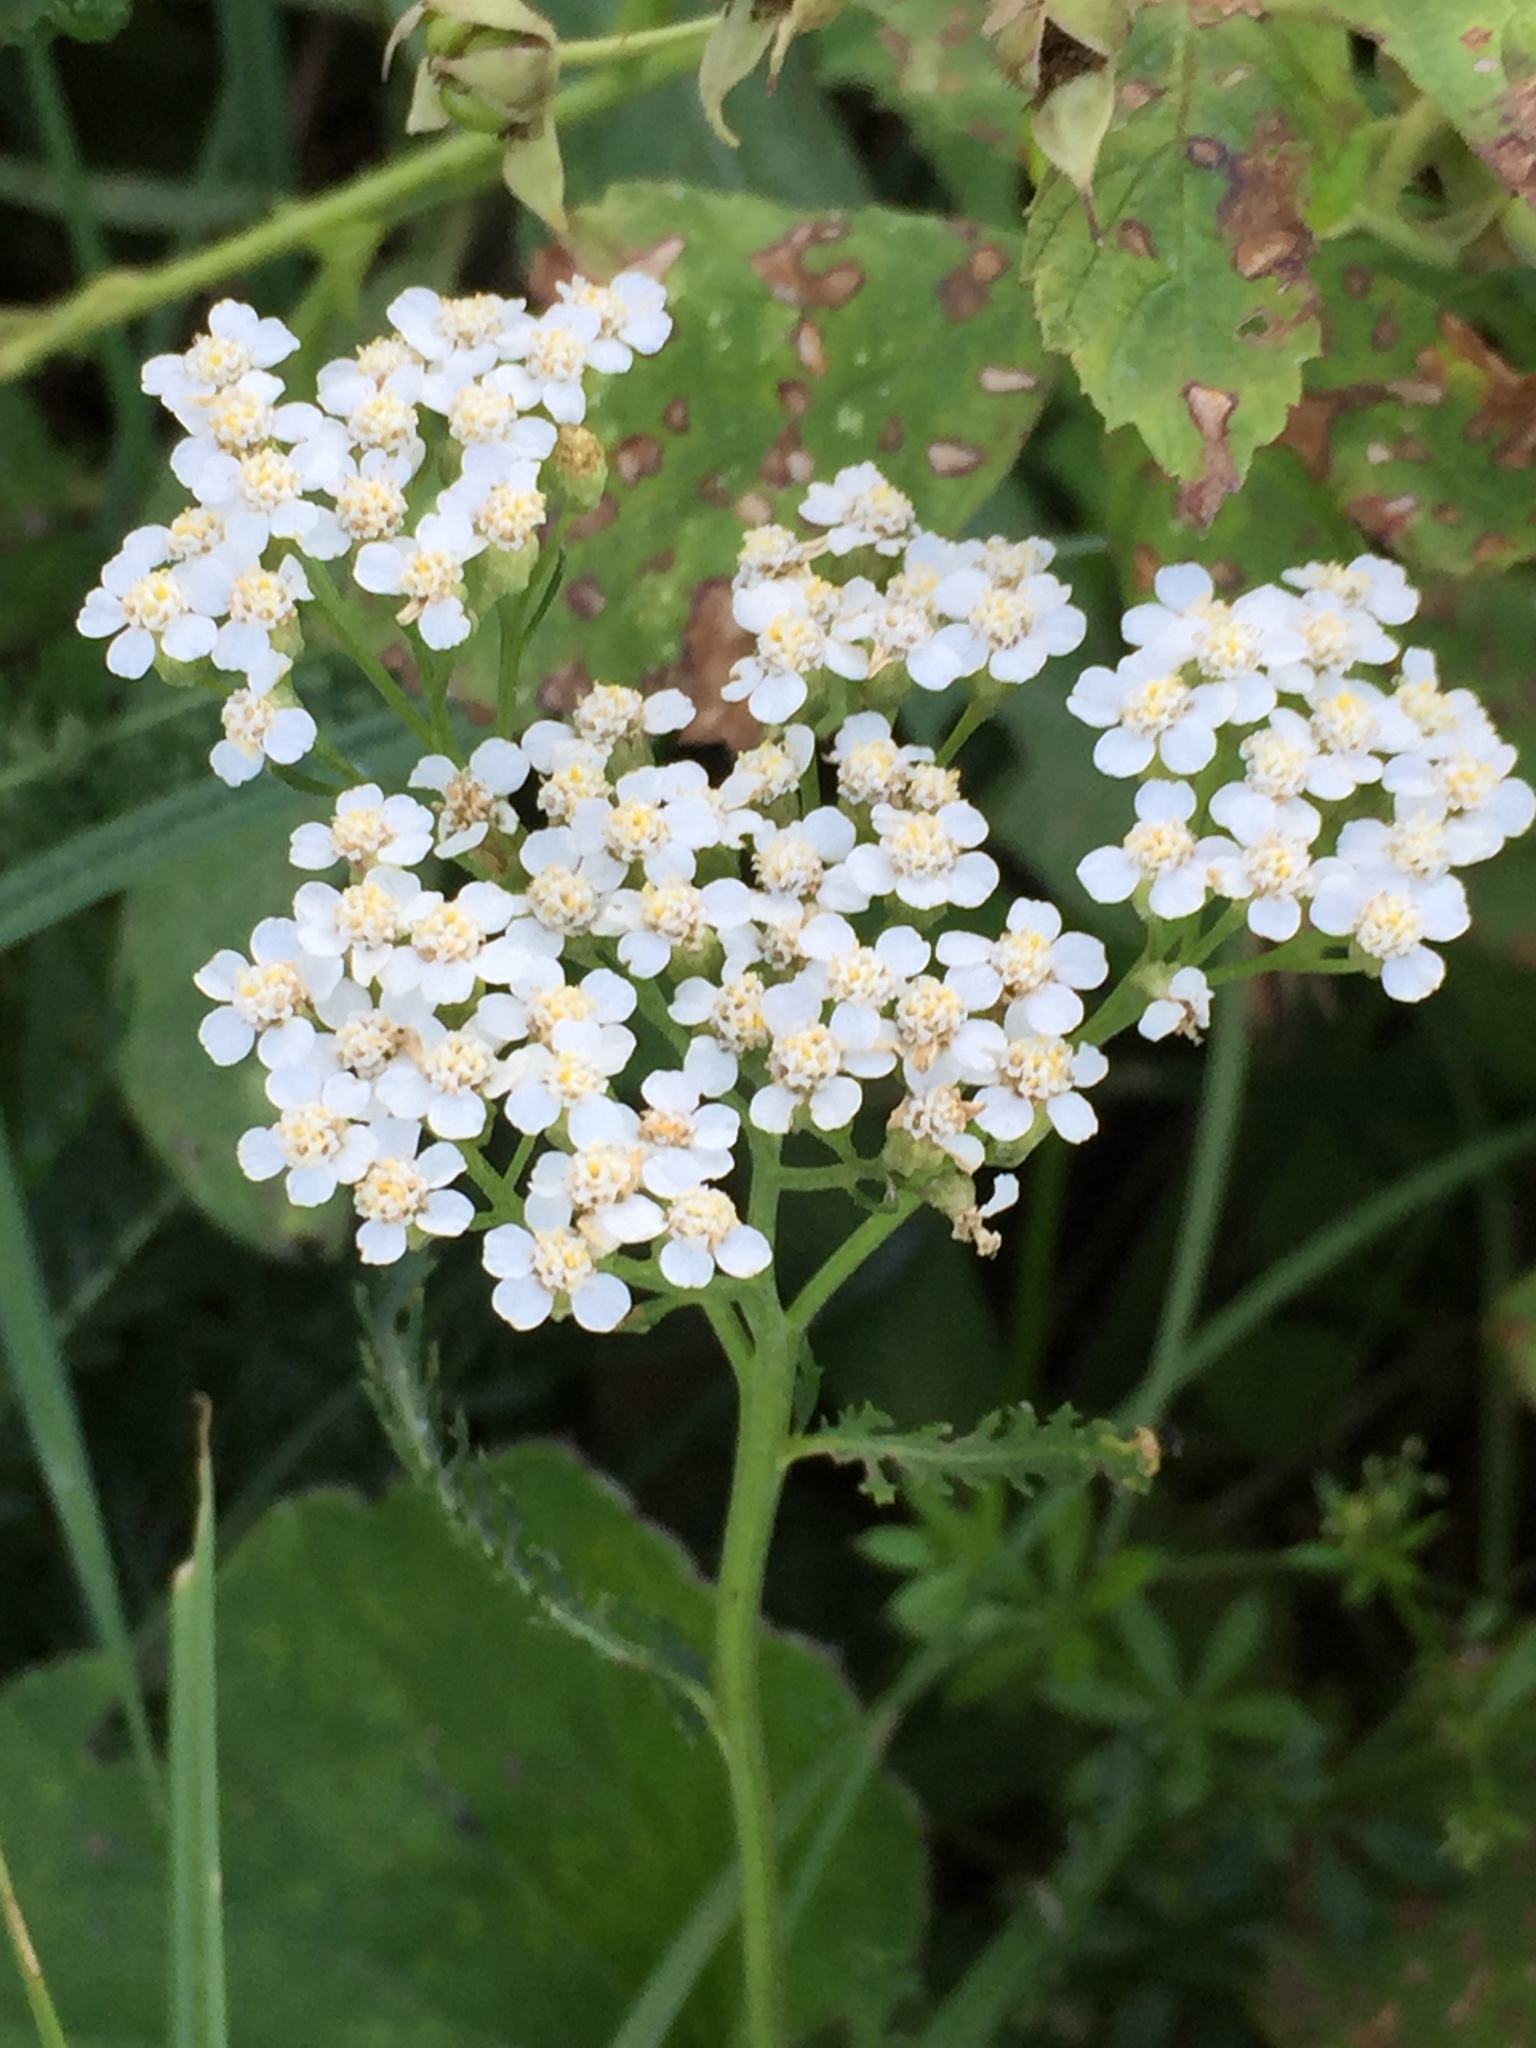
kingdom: Plantae
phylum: Tracheophyta
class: Magnoliopsida
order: Asterales
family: Asteraceae
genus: Achillea
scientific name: Achillea millefolium
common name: Yarrow
